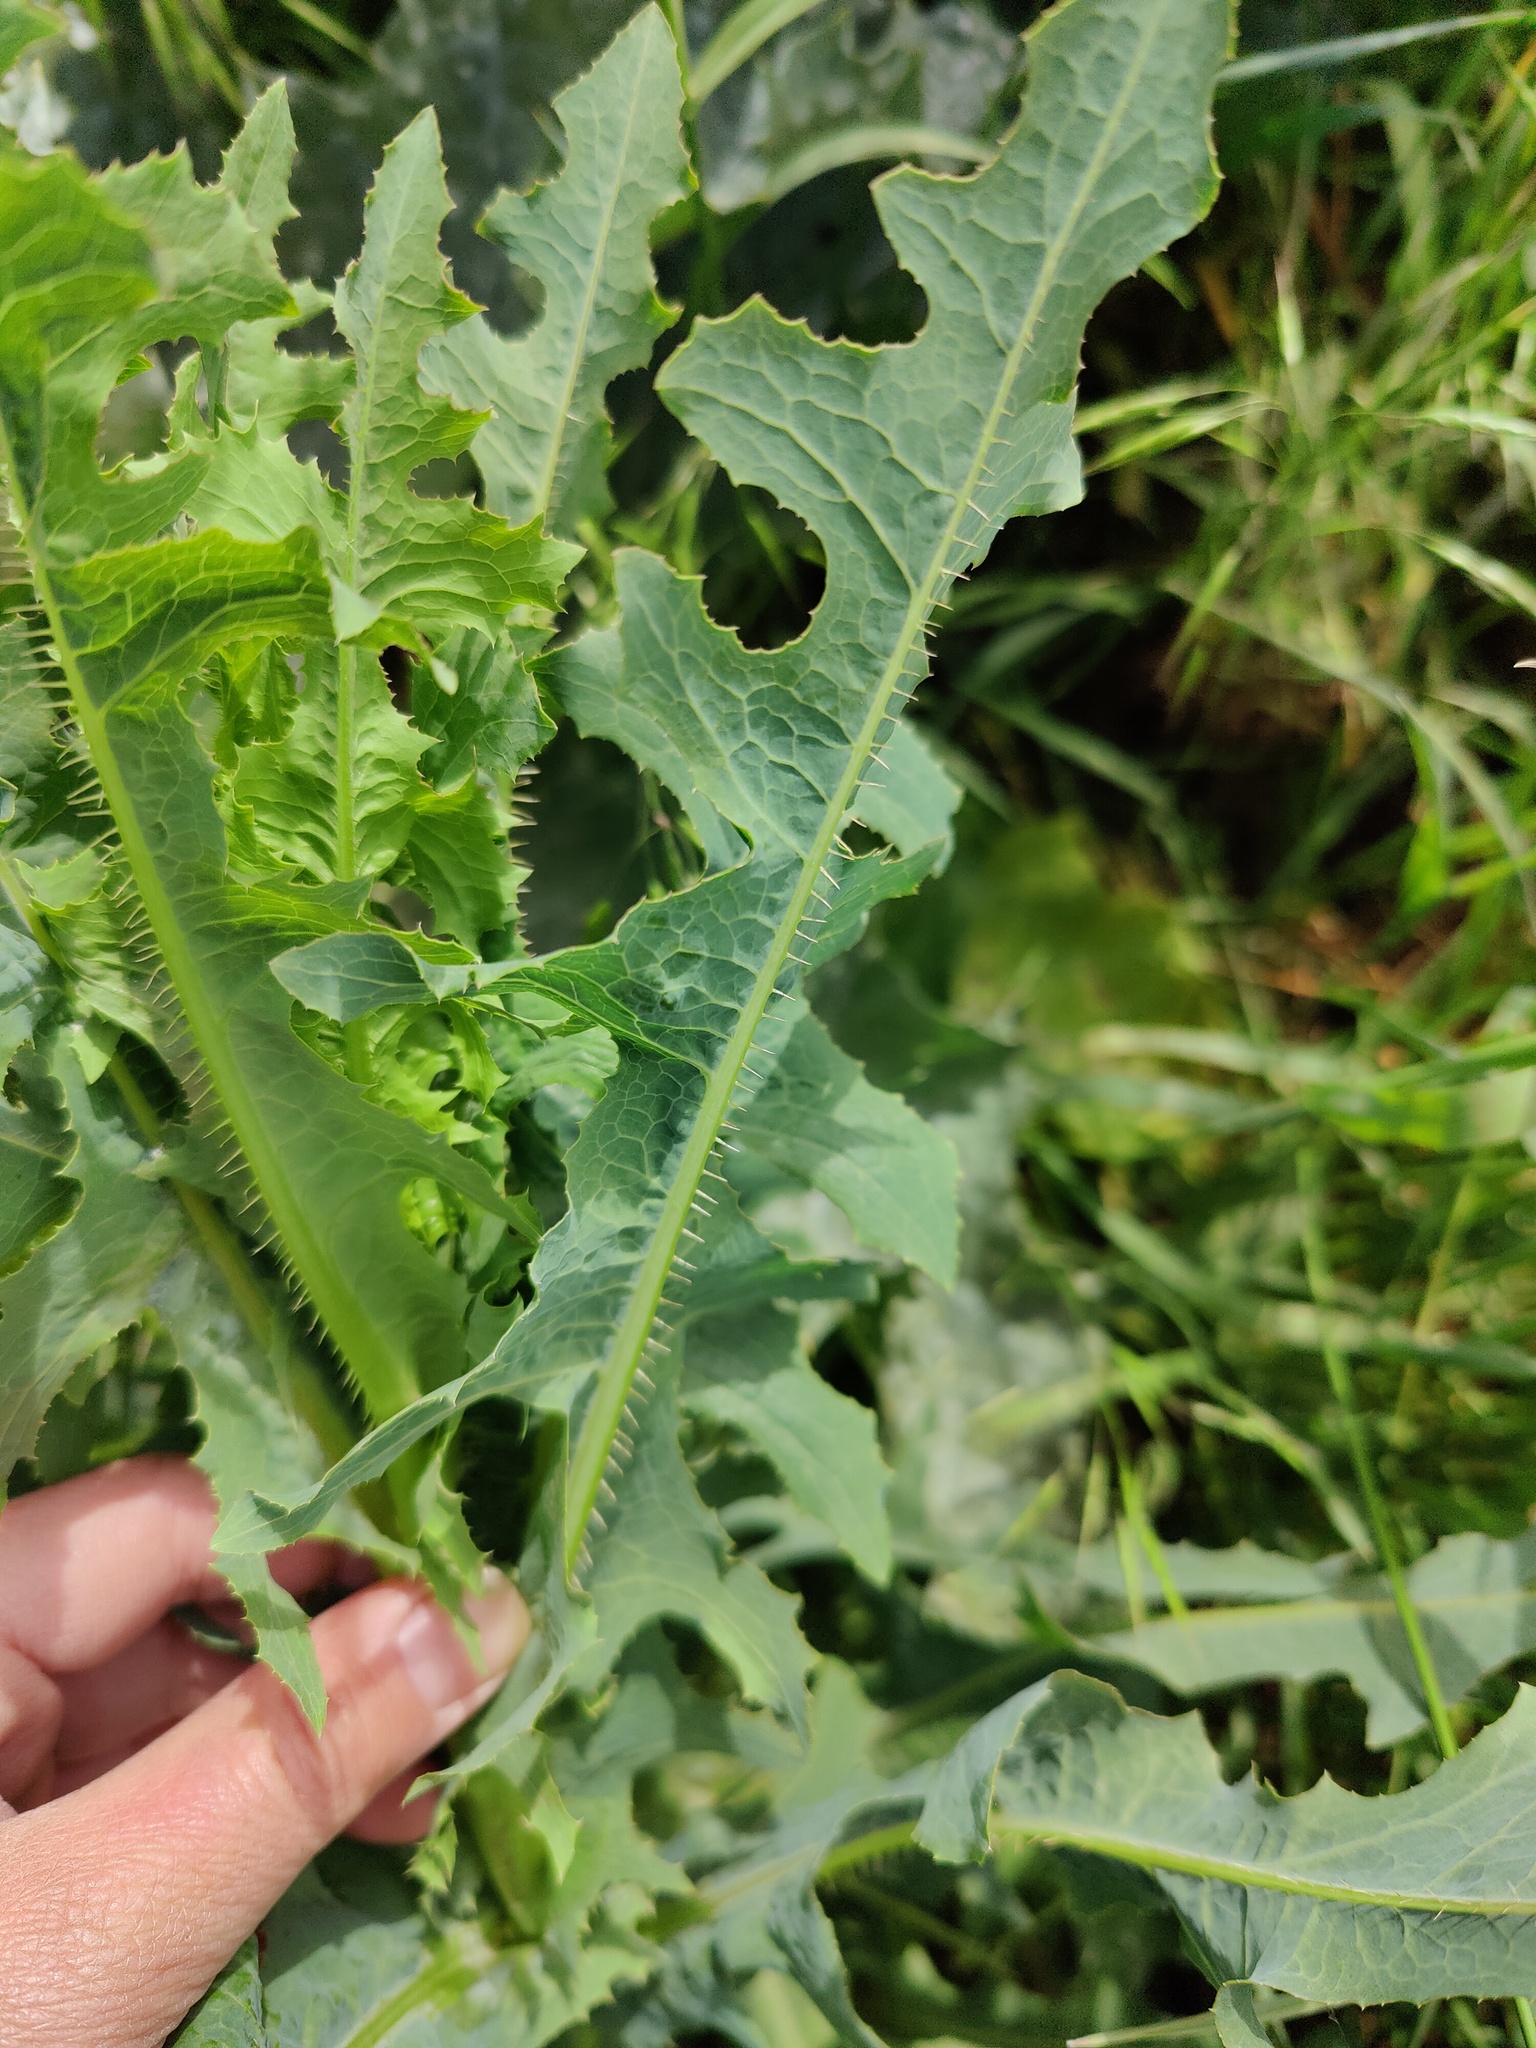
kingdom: Plantae
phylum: Tracheophyta
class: Magnoliopsida
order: Asterales
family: Asteraceae
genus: Lactuca
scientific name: Lactuca serriola
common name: Prickly lettuce
